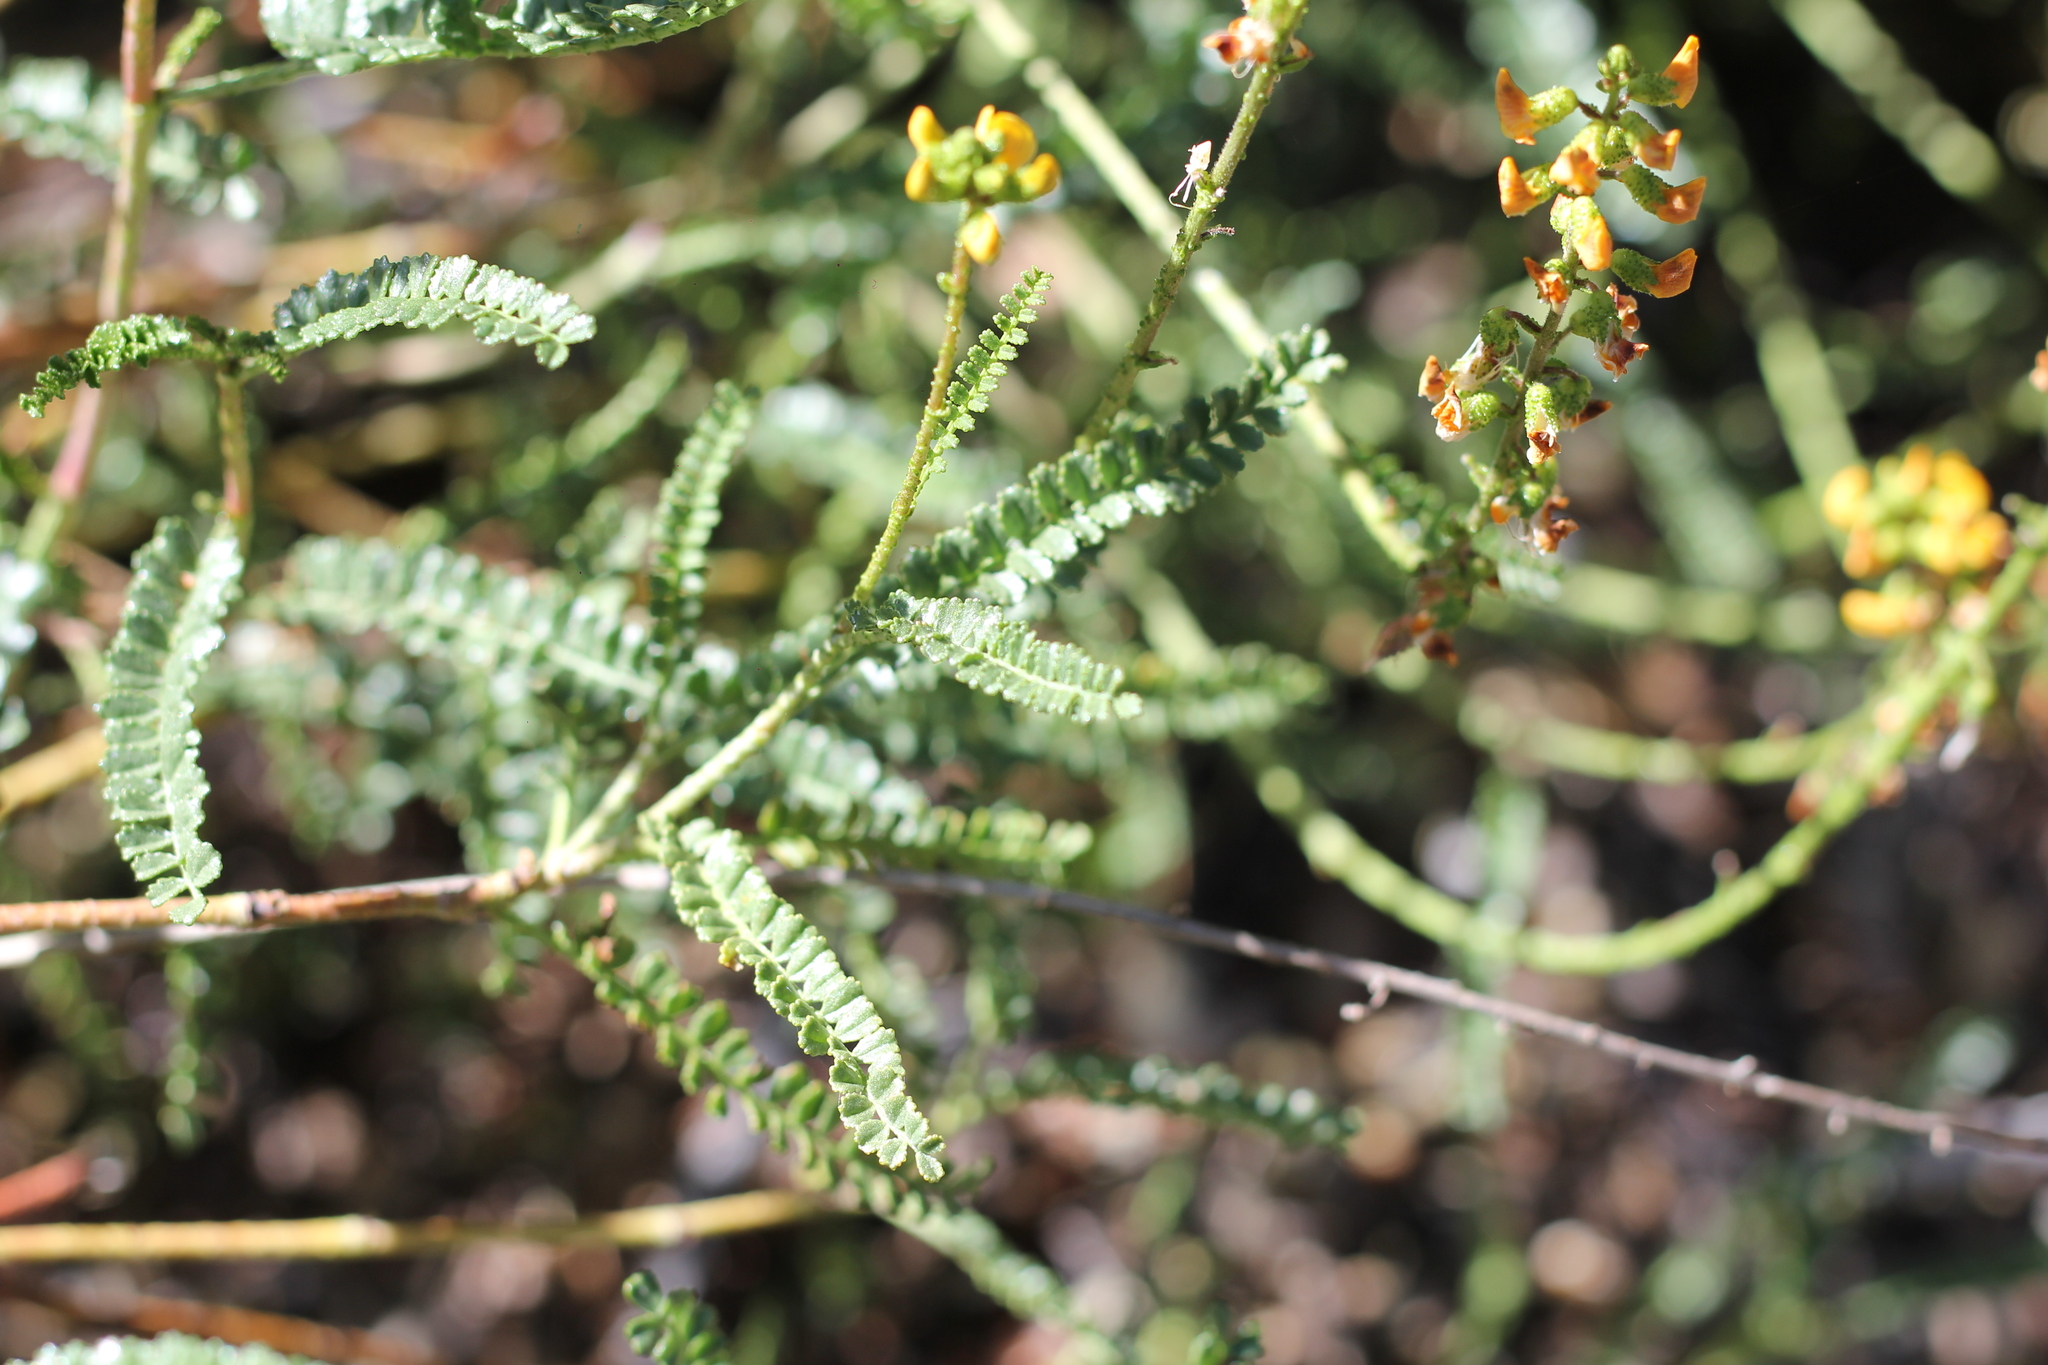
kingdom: Plantae
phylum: Tracheophyta
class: Magnoliopsida
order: Fabales
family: Fabaceae
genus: Adesmia
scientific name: Adesmia boronioides
